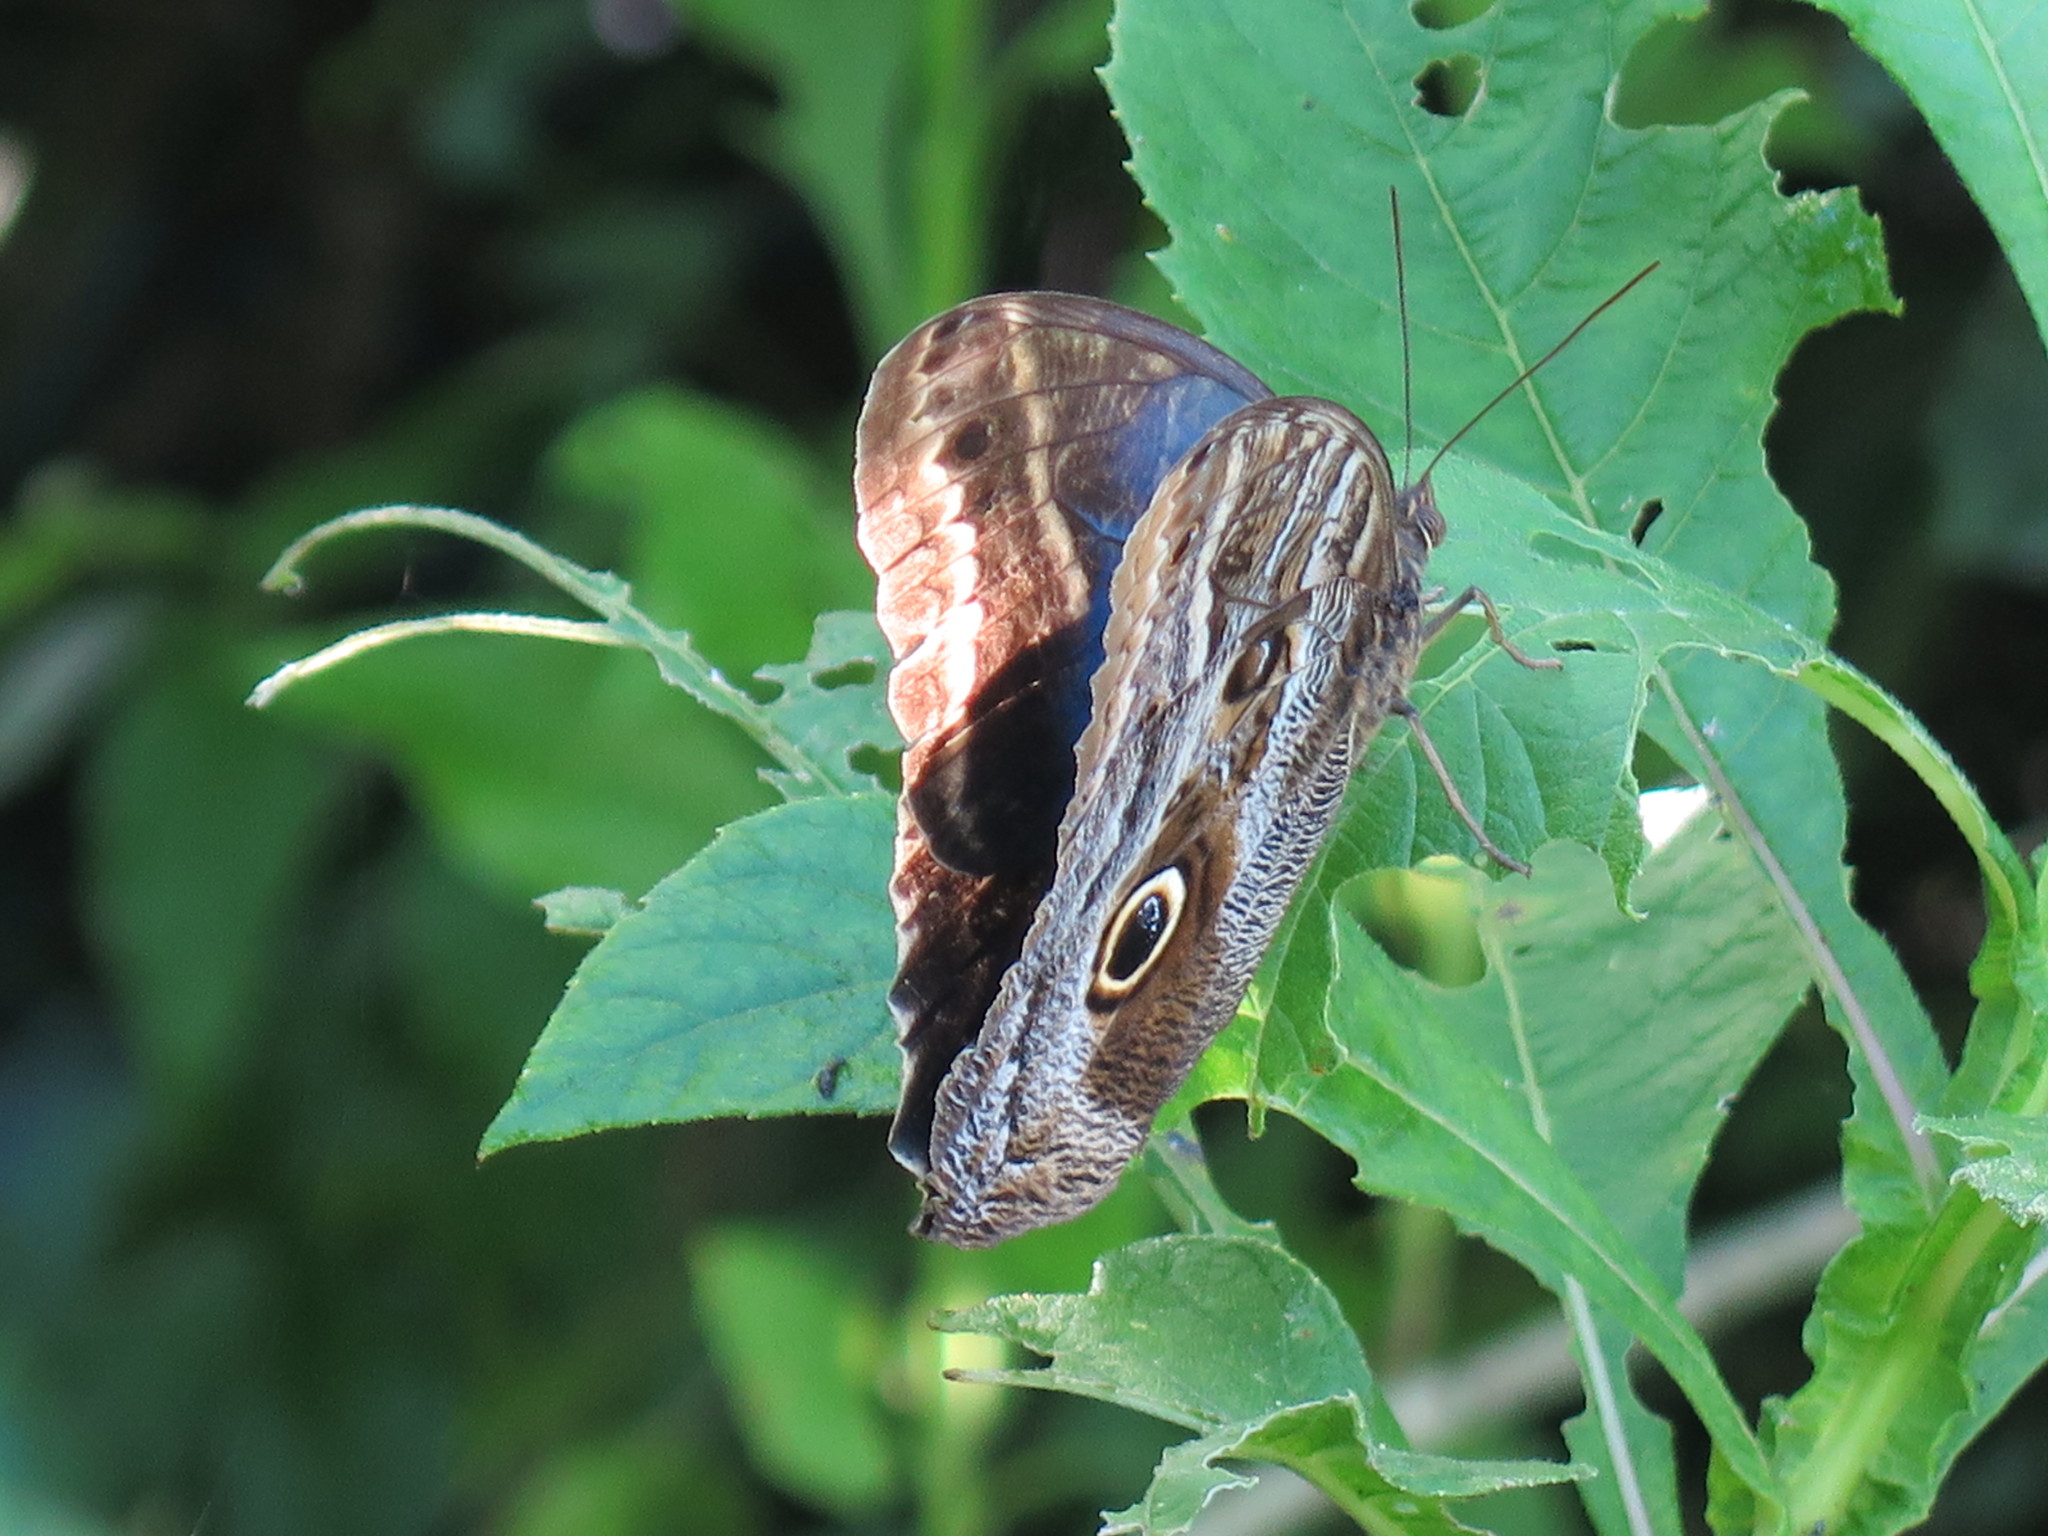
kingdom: Animalia
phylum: Arthropoda
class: Insecta
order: Lepidoptera
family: Nymphalidae
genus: Caligo
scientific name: Caligo illioneus
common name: Dusky owl-butterfly
